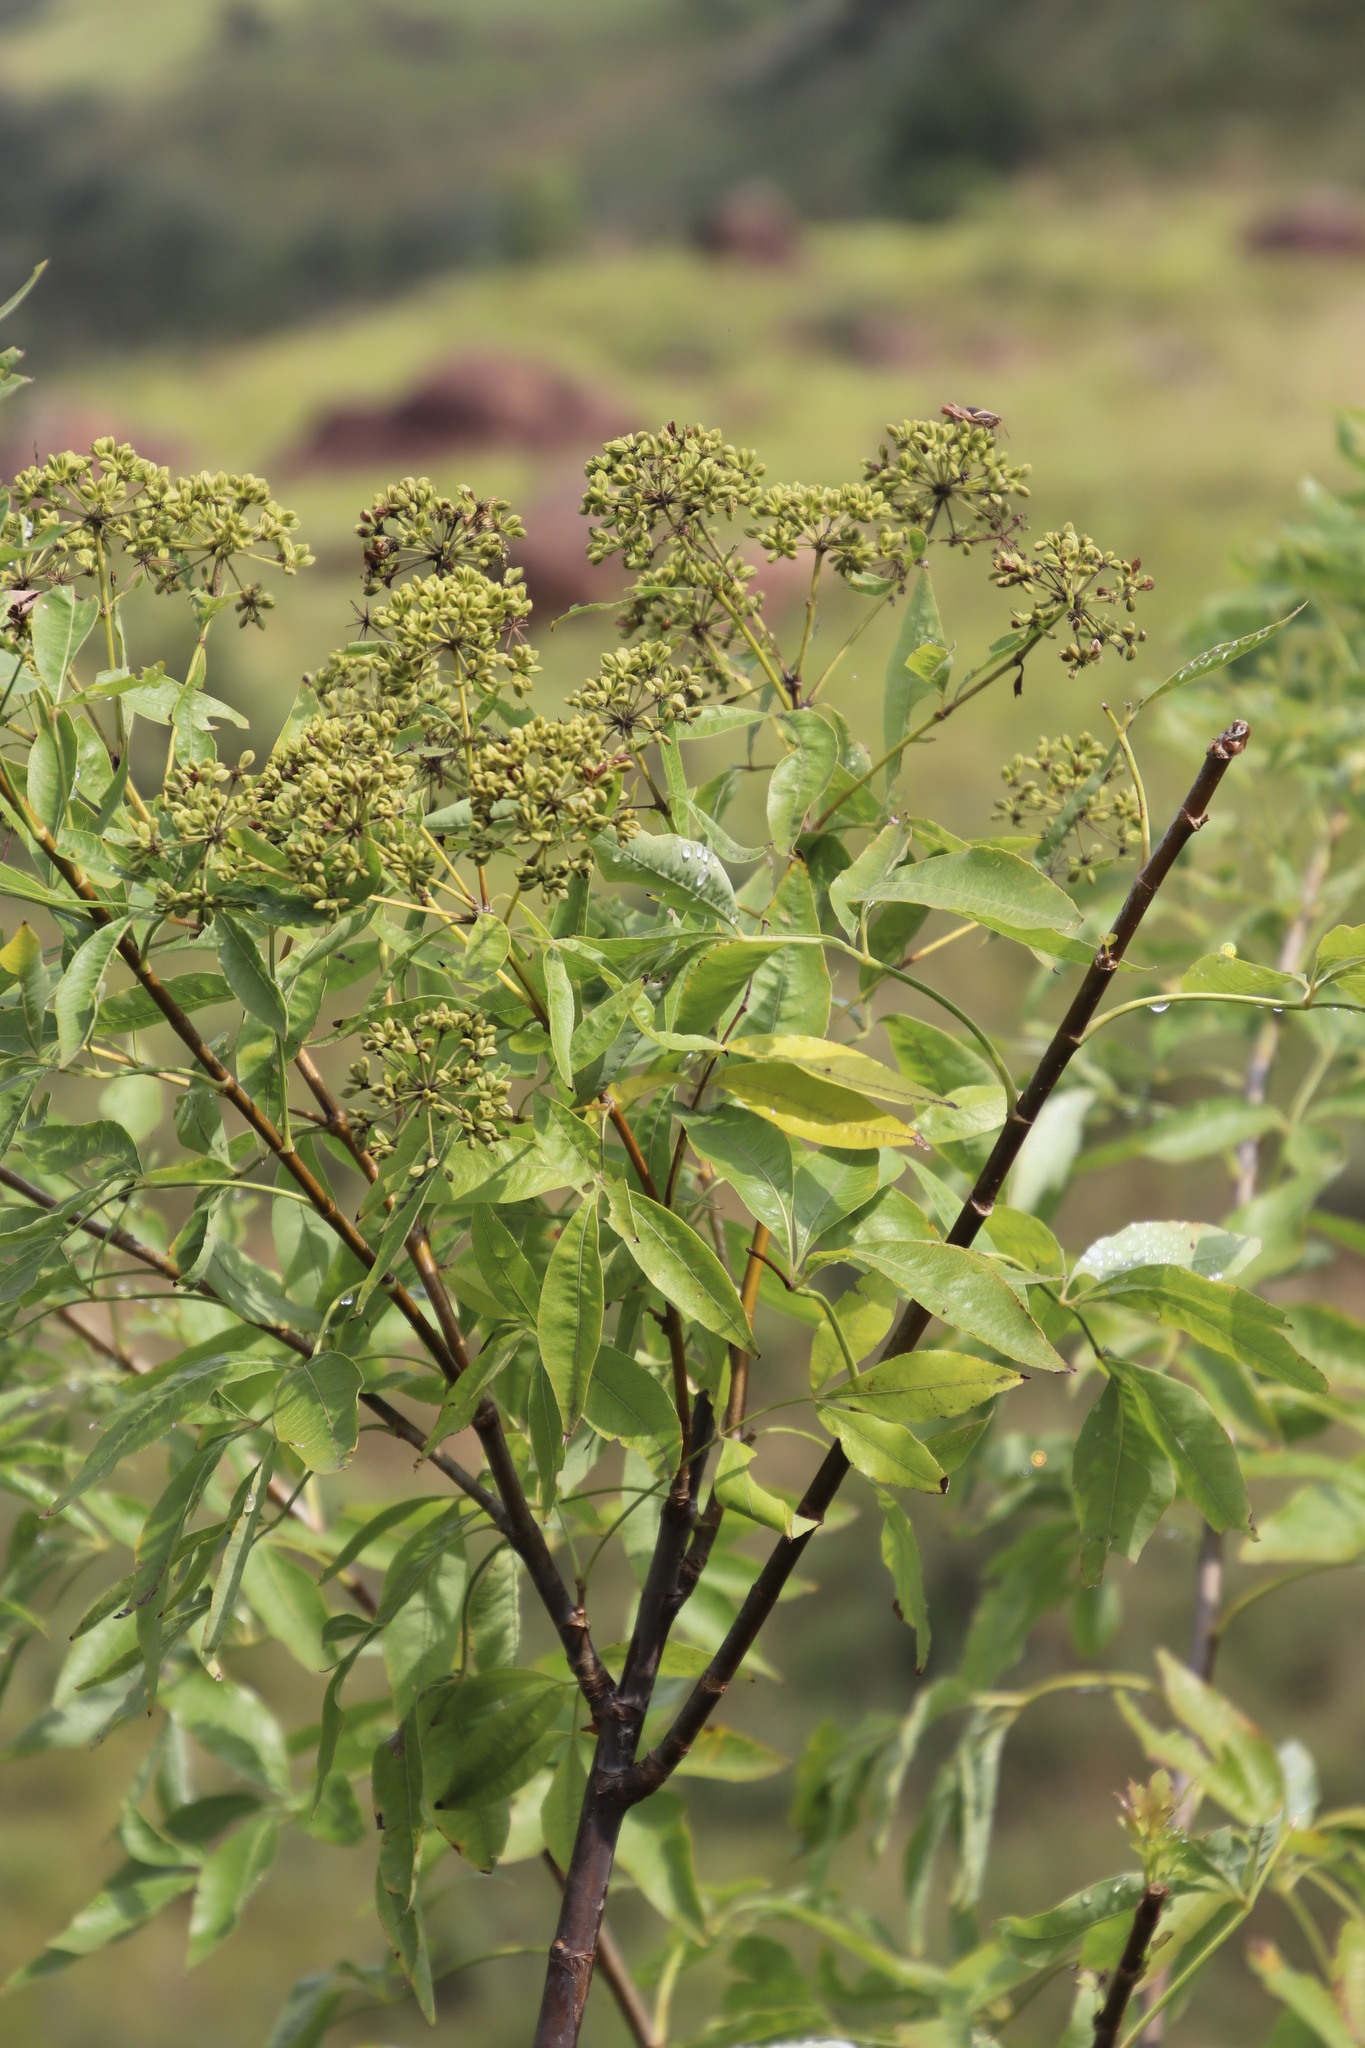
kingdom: Plantae
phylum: Tracheophyta
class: Magnoliopsida
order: Apiales
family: Apiaceae
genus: Heteromorpha
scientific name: Heteromorpha arborescens
